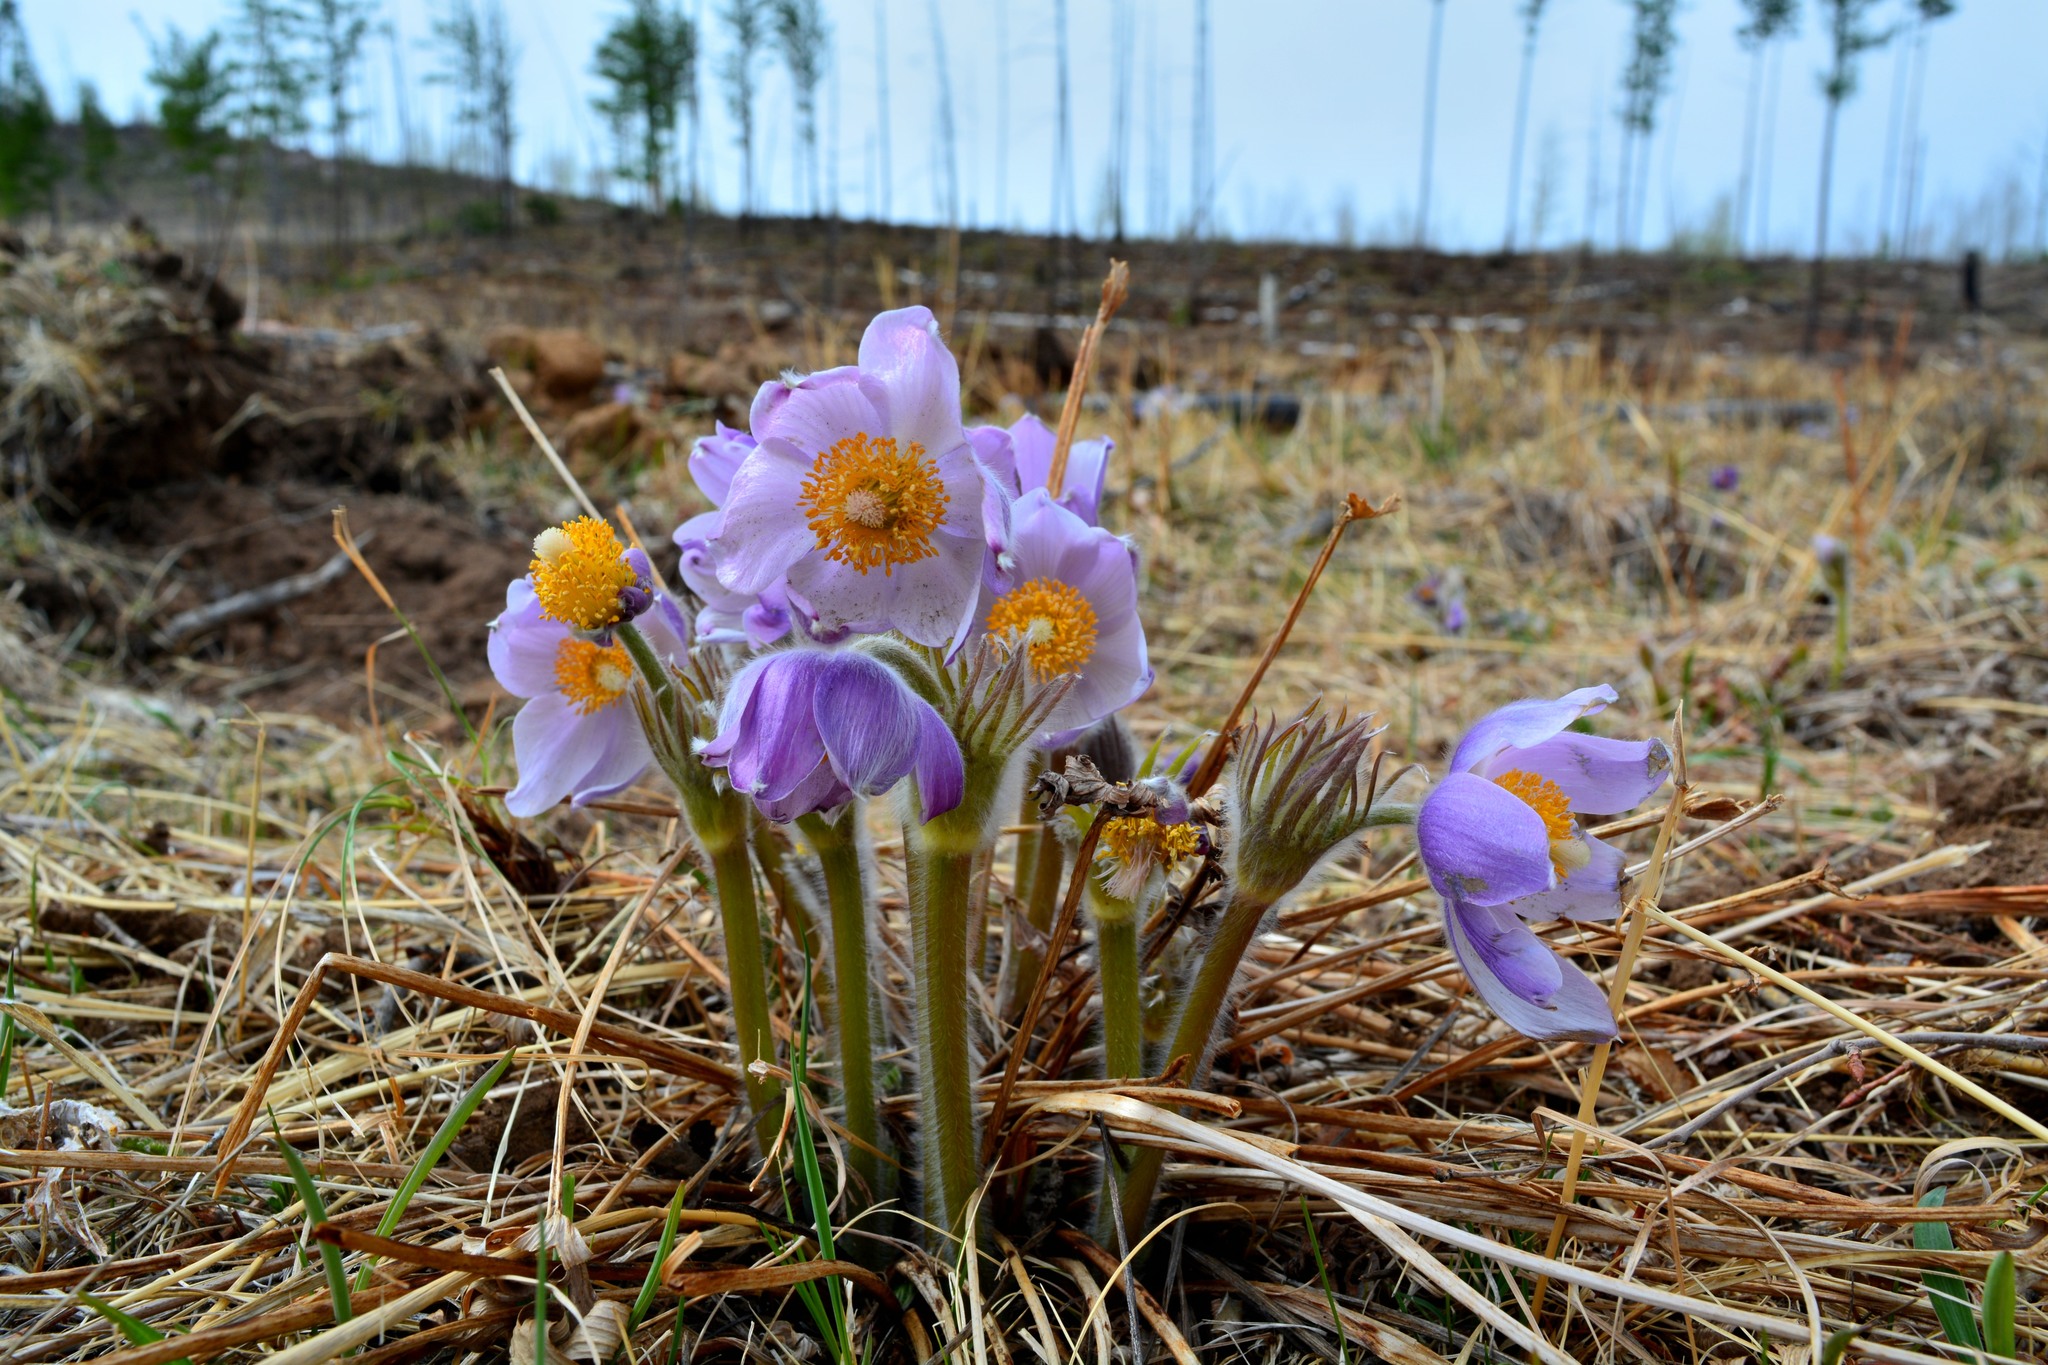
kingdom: Plantae
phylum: Tracheophyta
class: Magnoliopsida
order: Ranunculales
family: Ranunculaceae
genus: Pulsatilla
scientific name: Pulsatilla patens
